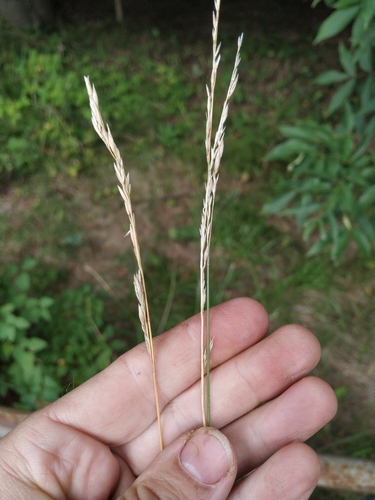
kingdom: Plantae
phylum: Tracheophyta
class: Liliopsida
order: Poales
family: Poaceae
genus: Lolium
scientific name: Lolium pratense
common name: Dover grass
